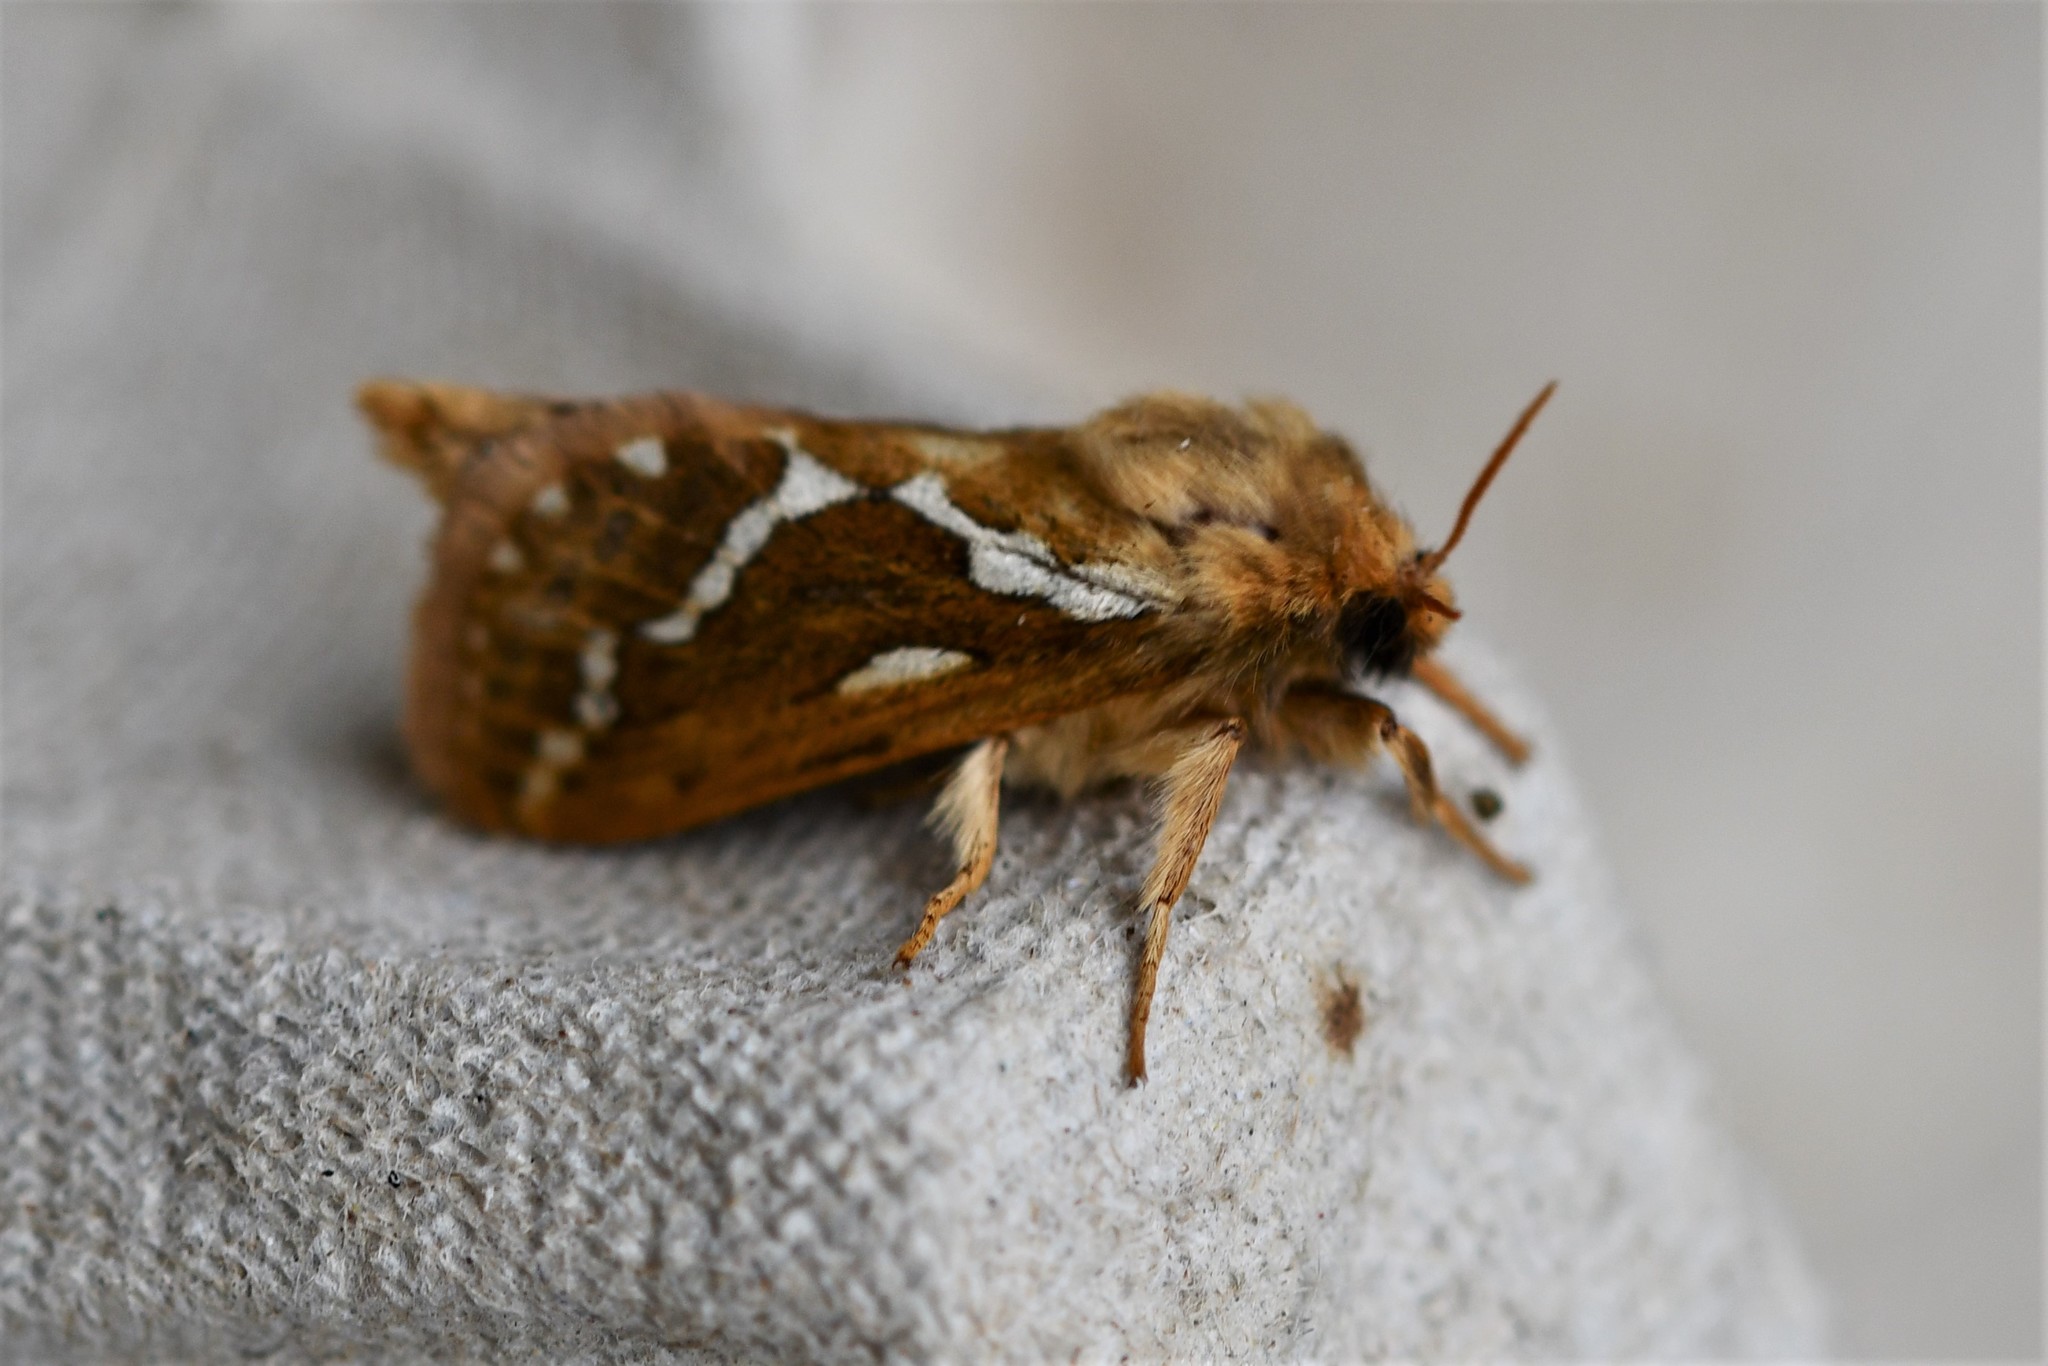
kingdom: Animalia
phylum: Arthropoda
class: Insecta
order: Lepidoptera
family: Hepialidae
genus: Korscheltellus
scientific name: Korscheltellus lupulina
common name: Common swift
